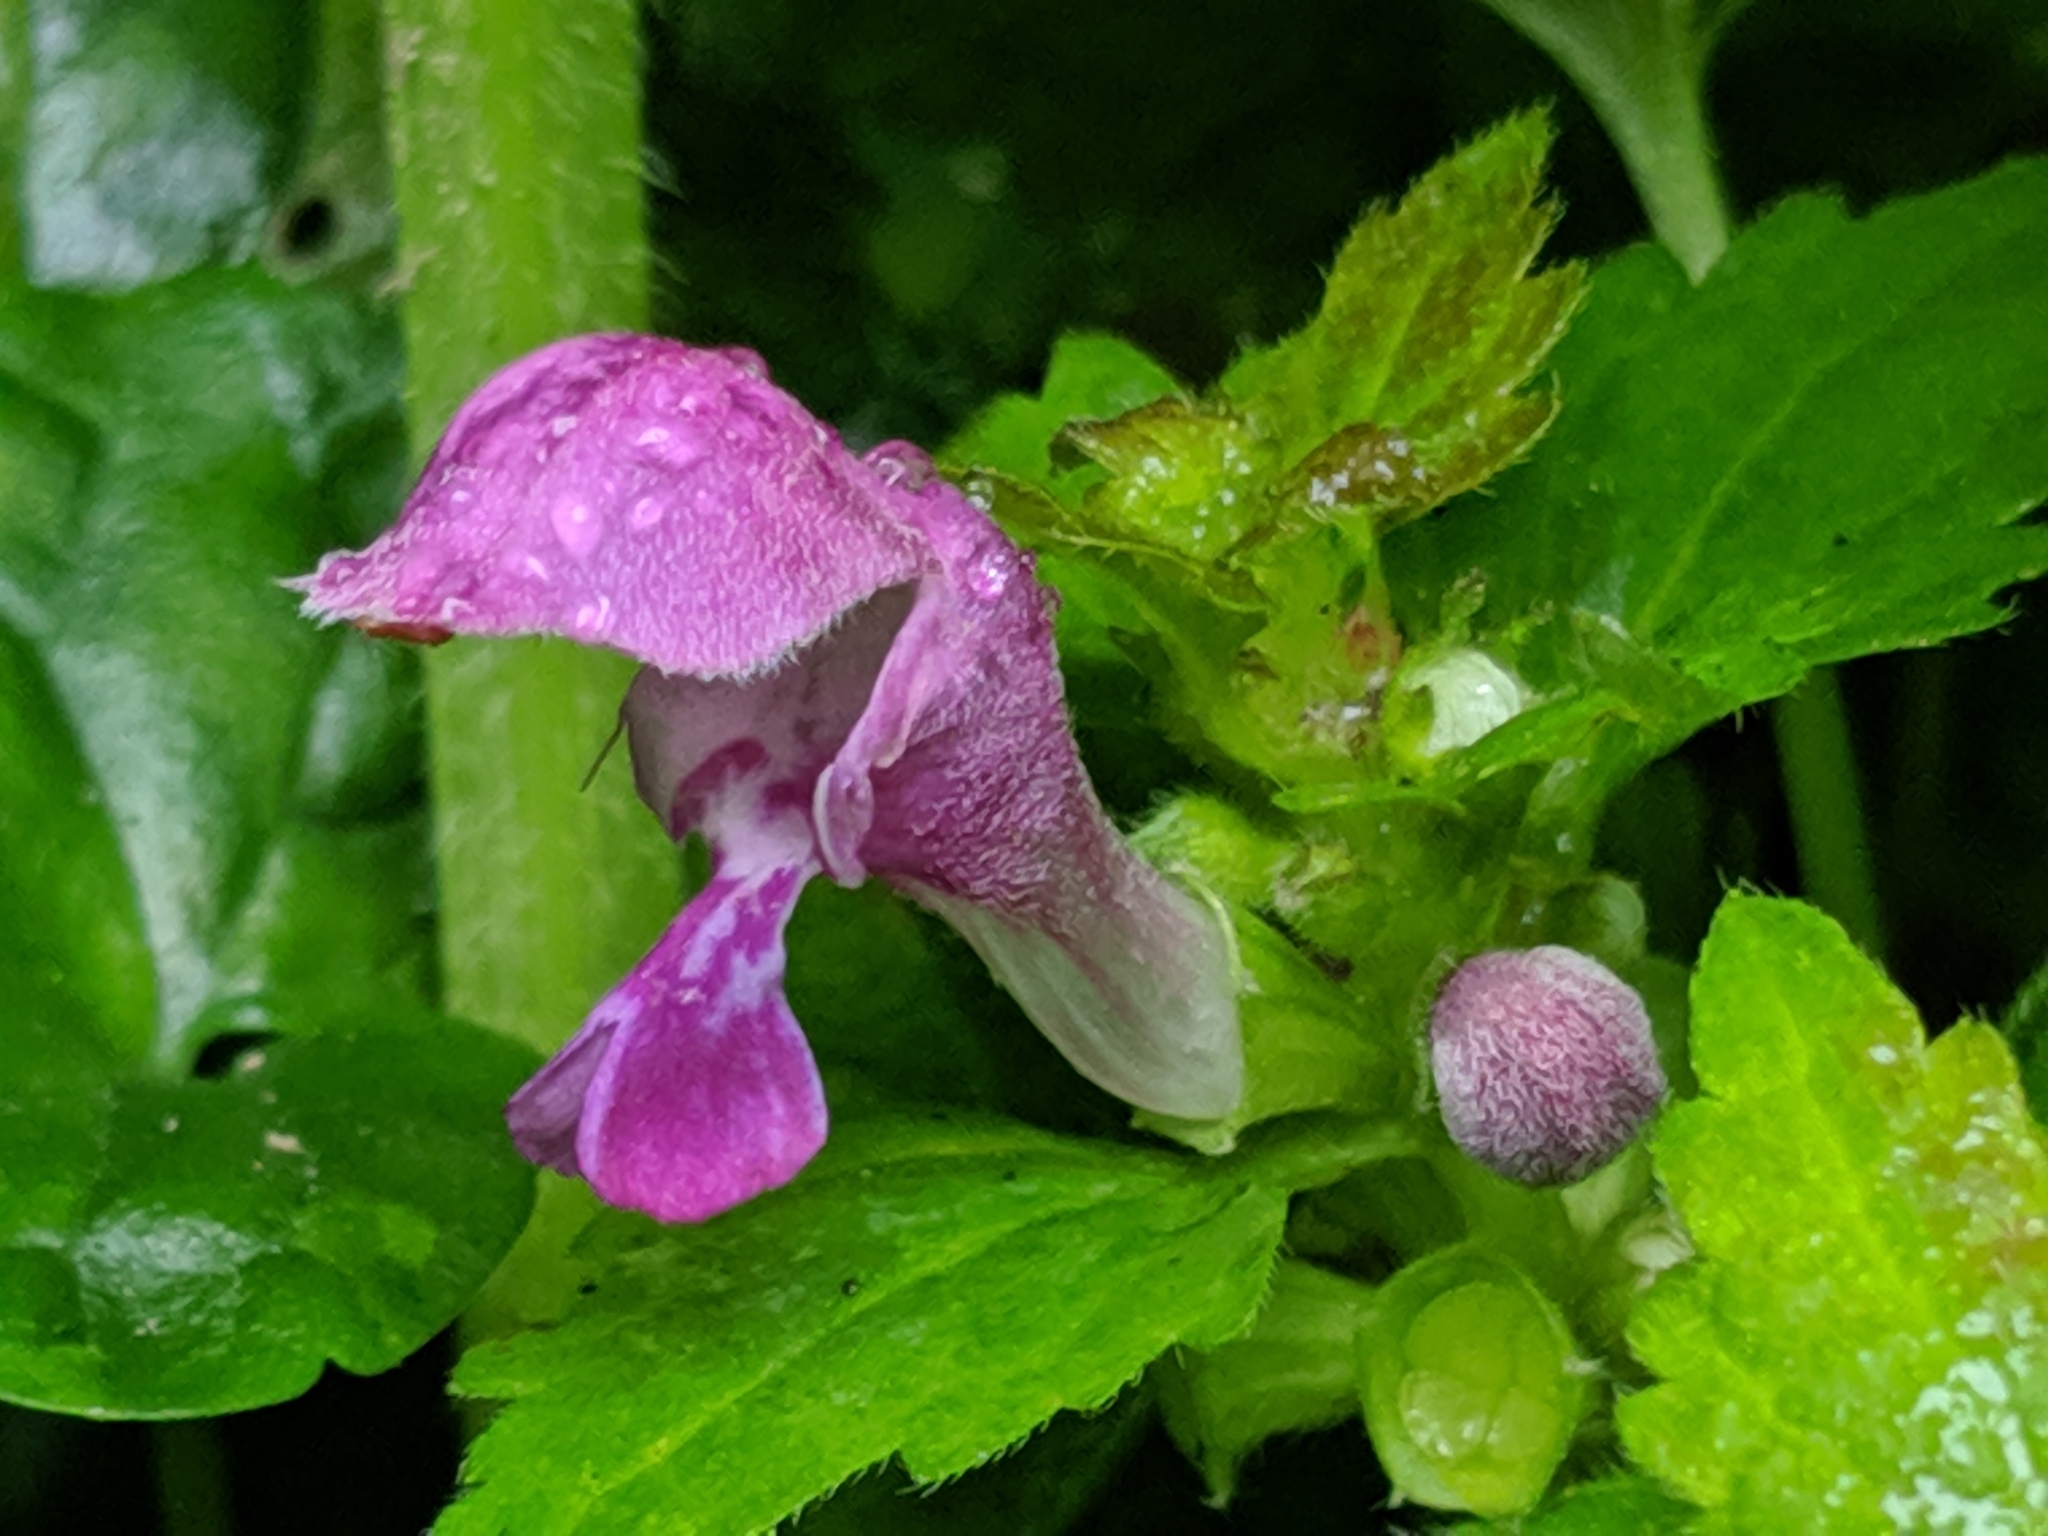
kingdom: Plantae
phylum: Tracheophyta
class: Magnoliopsida
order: Lamiales
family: Lamiaceae
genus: Lamium
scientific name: Lamium maculatum
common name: Spotted dead-nettle
